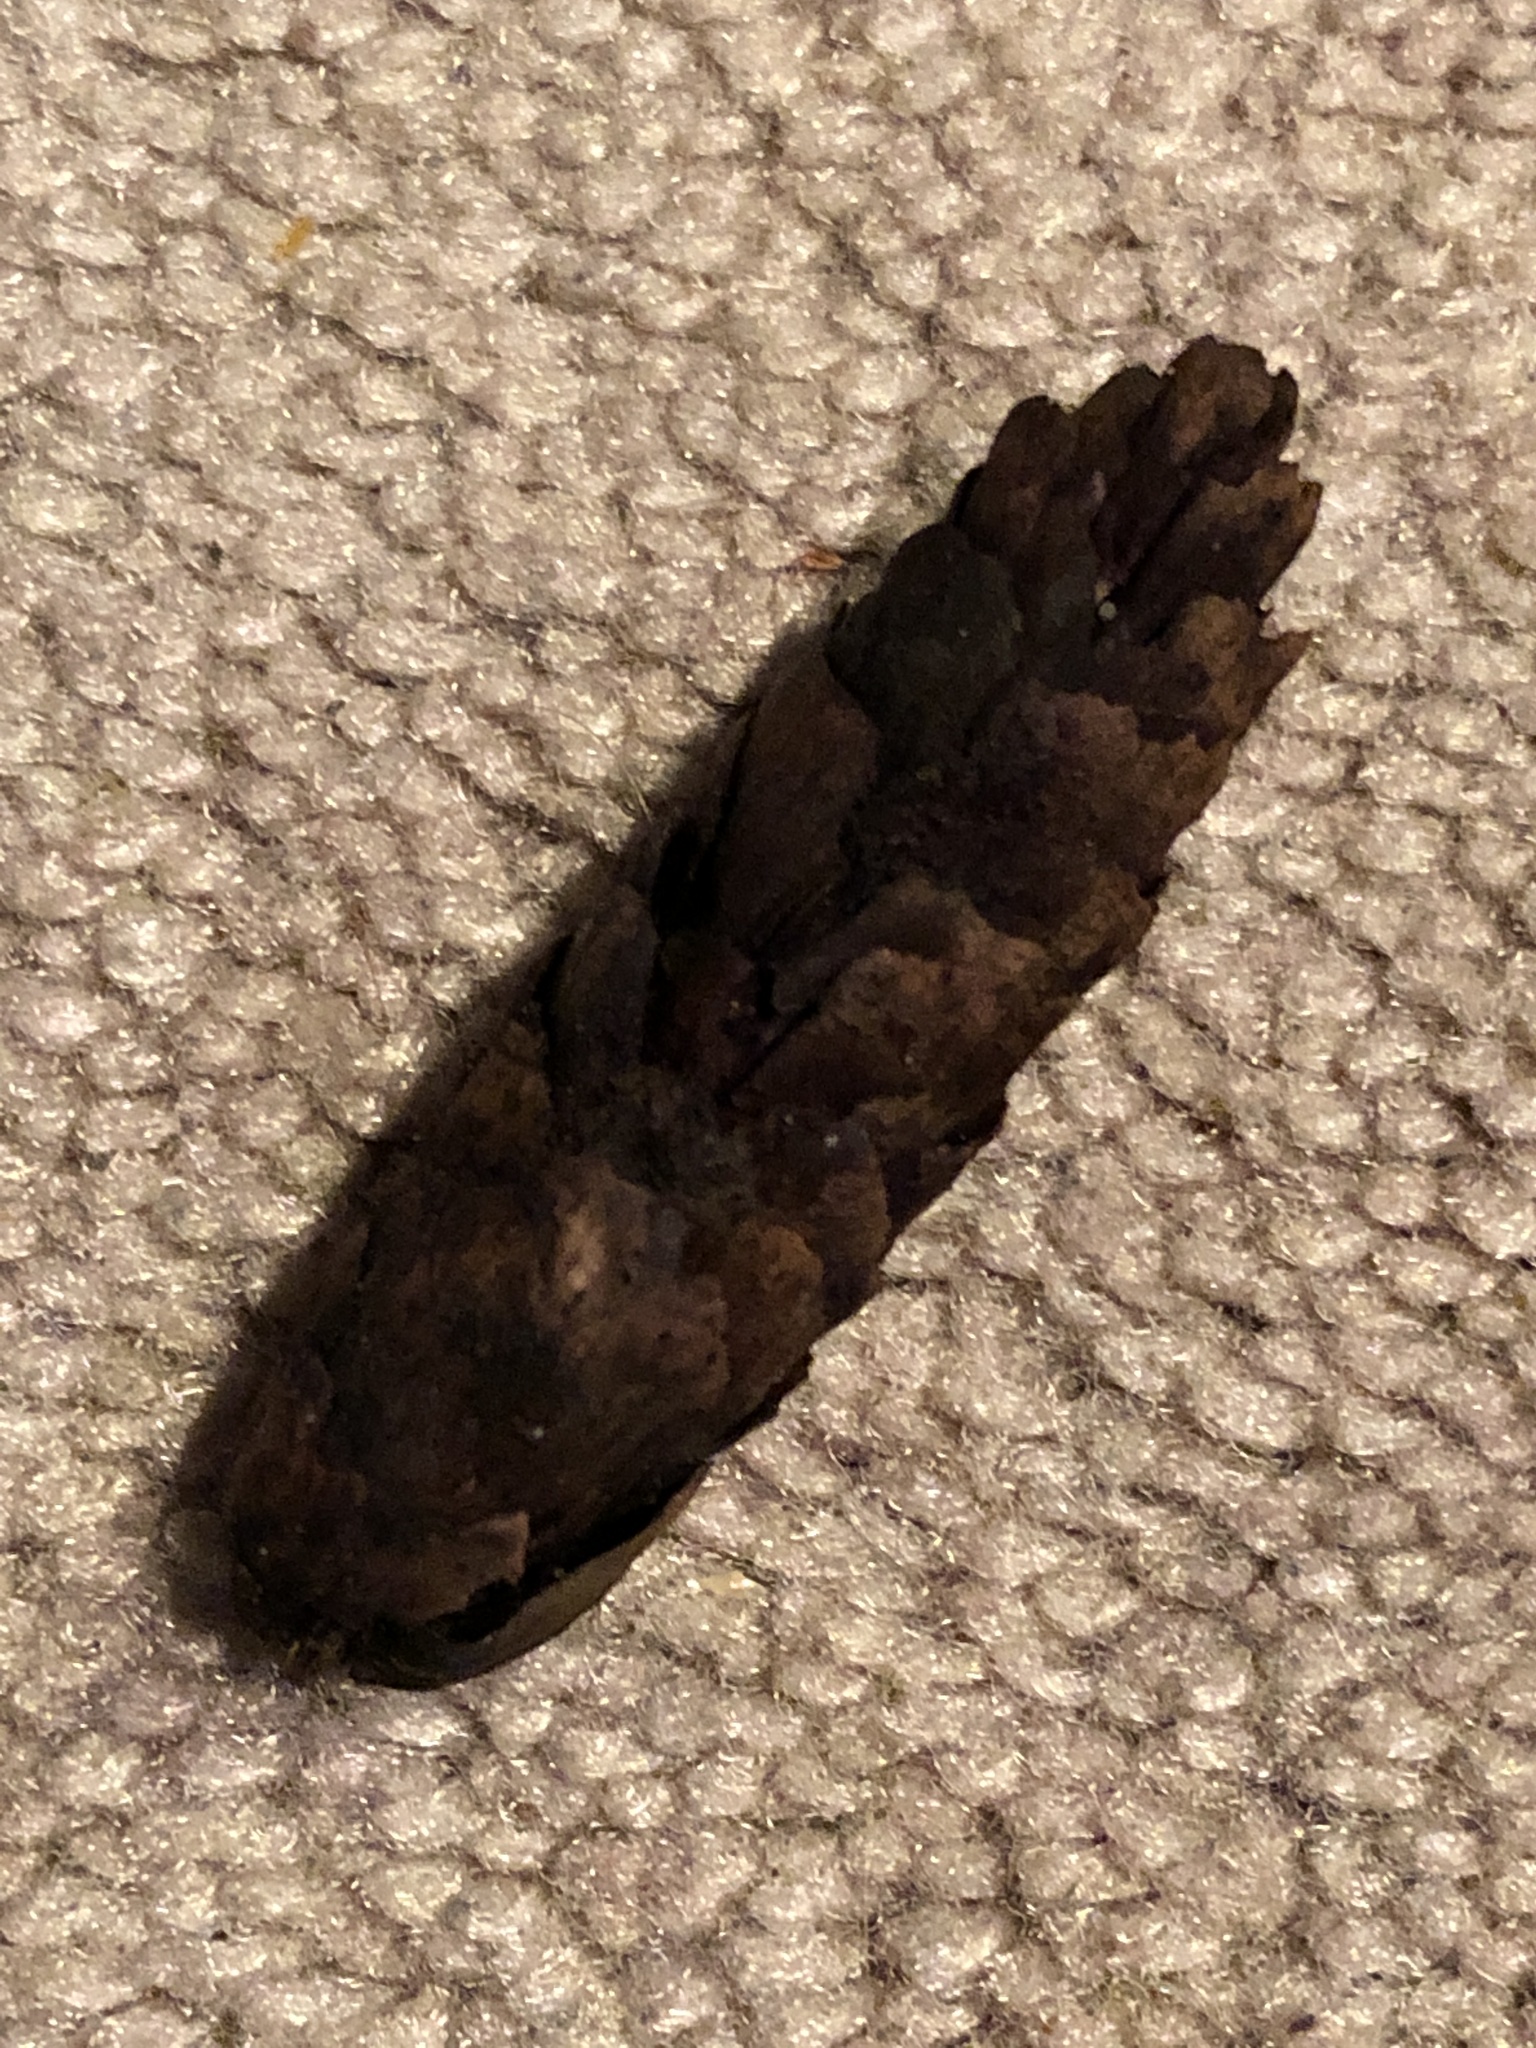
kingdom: Plantae
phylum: Tracheophyta
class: Pinopsida
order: Pinales
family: Pinaceae
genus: Picea
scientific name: Picea glauca
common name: White spruce
